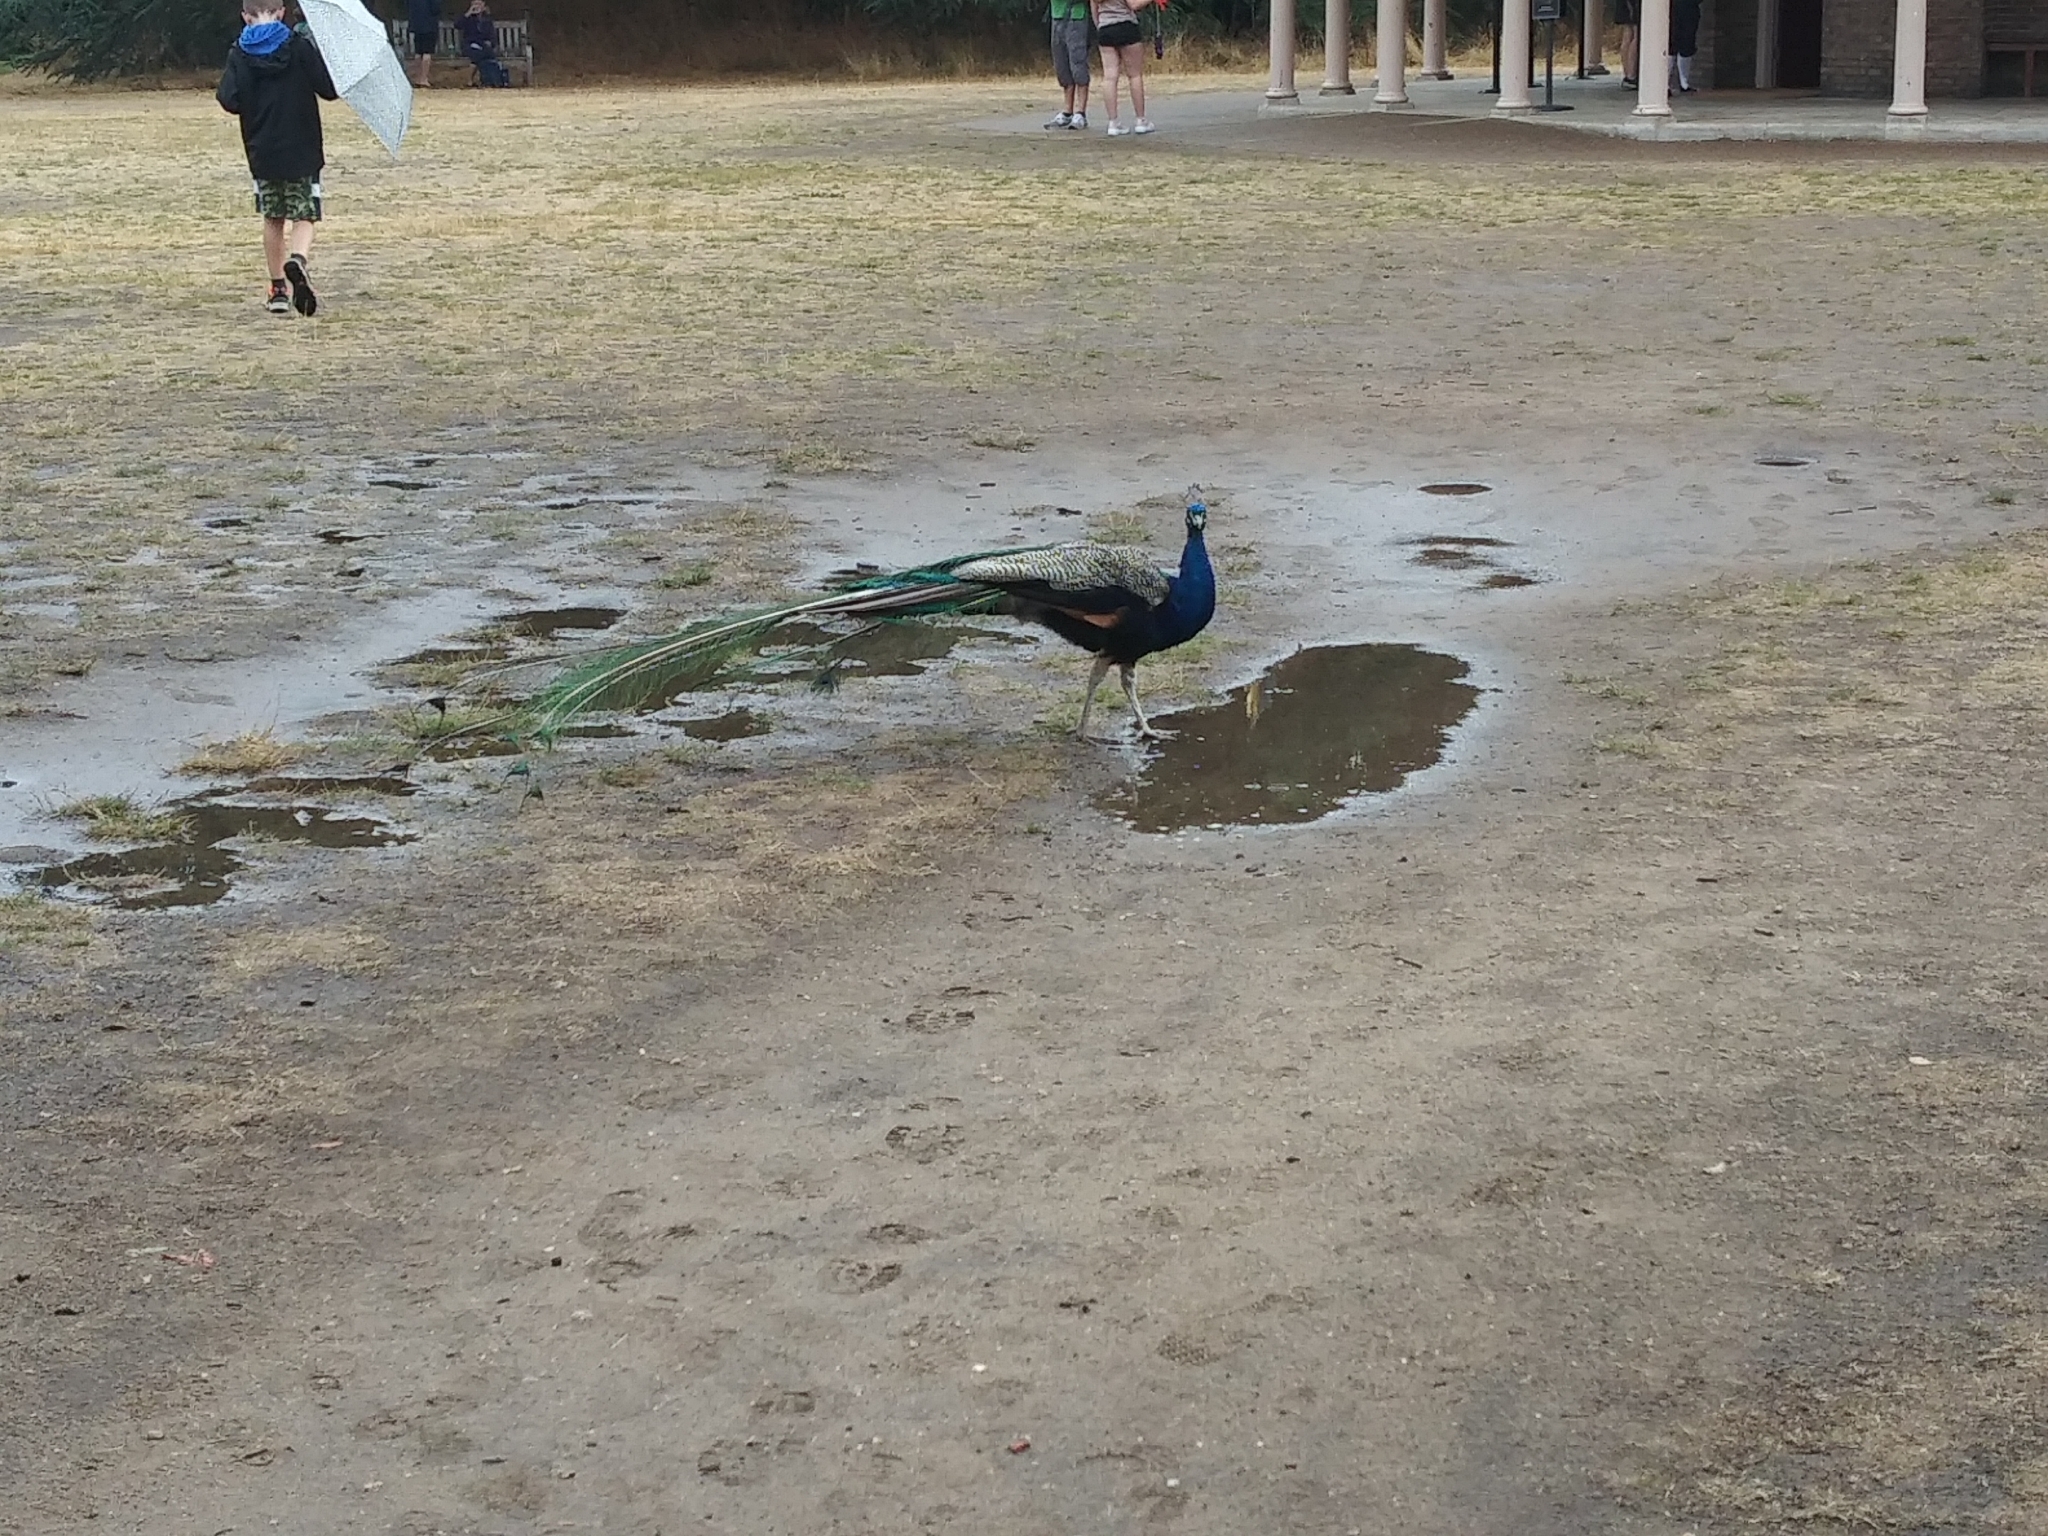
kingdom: Animalia
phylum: Chordata
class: Aves
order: Galliformes
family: Phasianidae
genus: Pavo
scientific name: Pavo cristatus
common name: Indian peafowl
